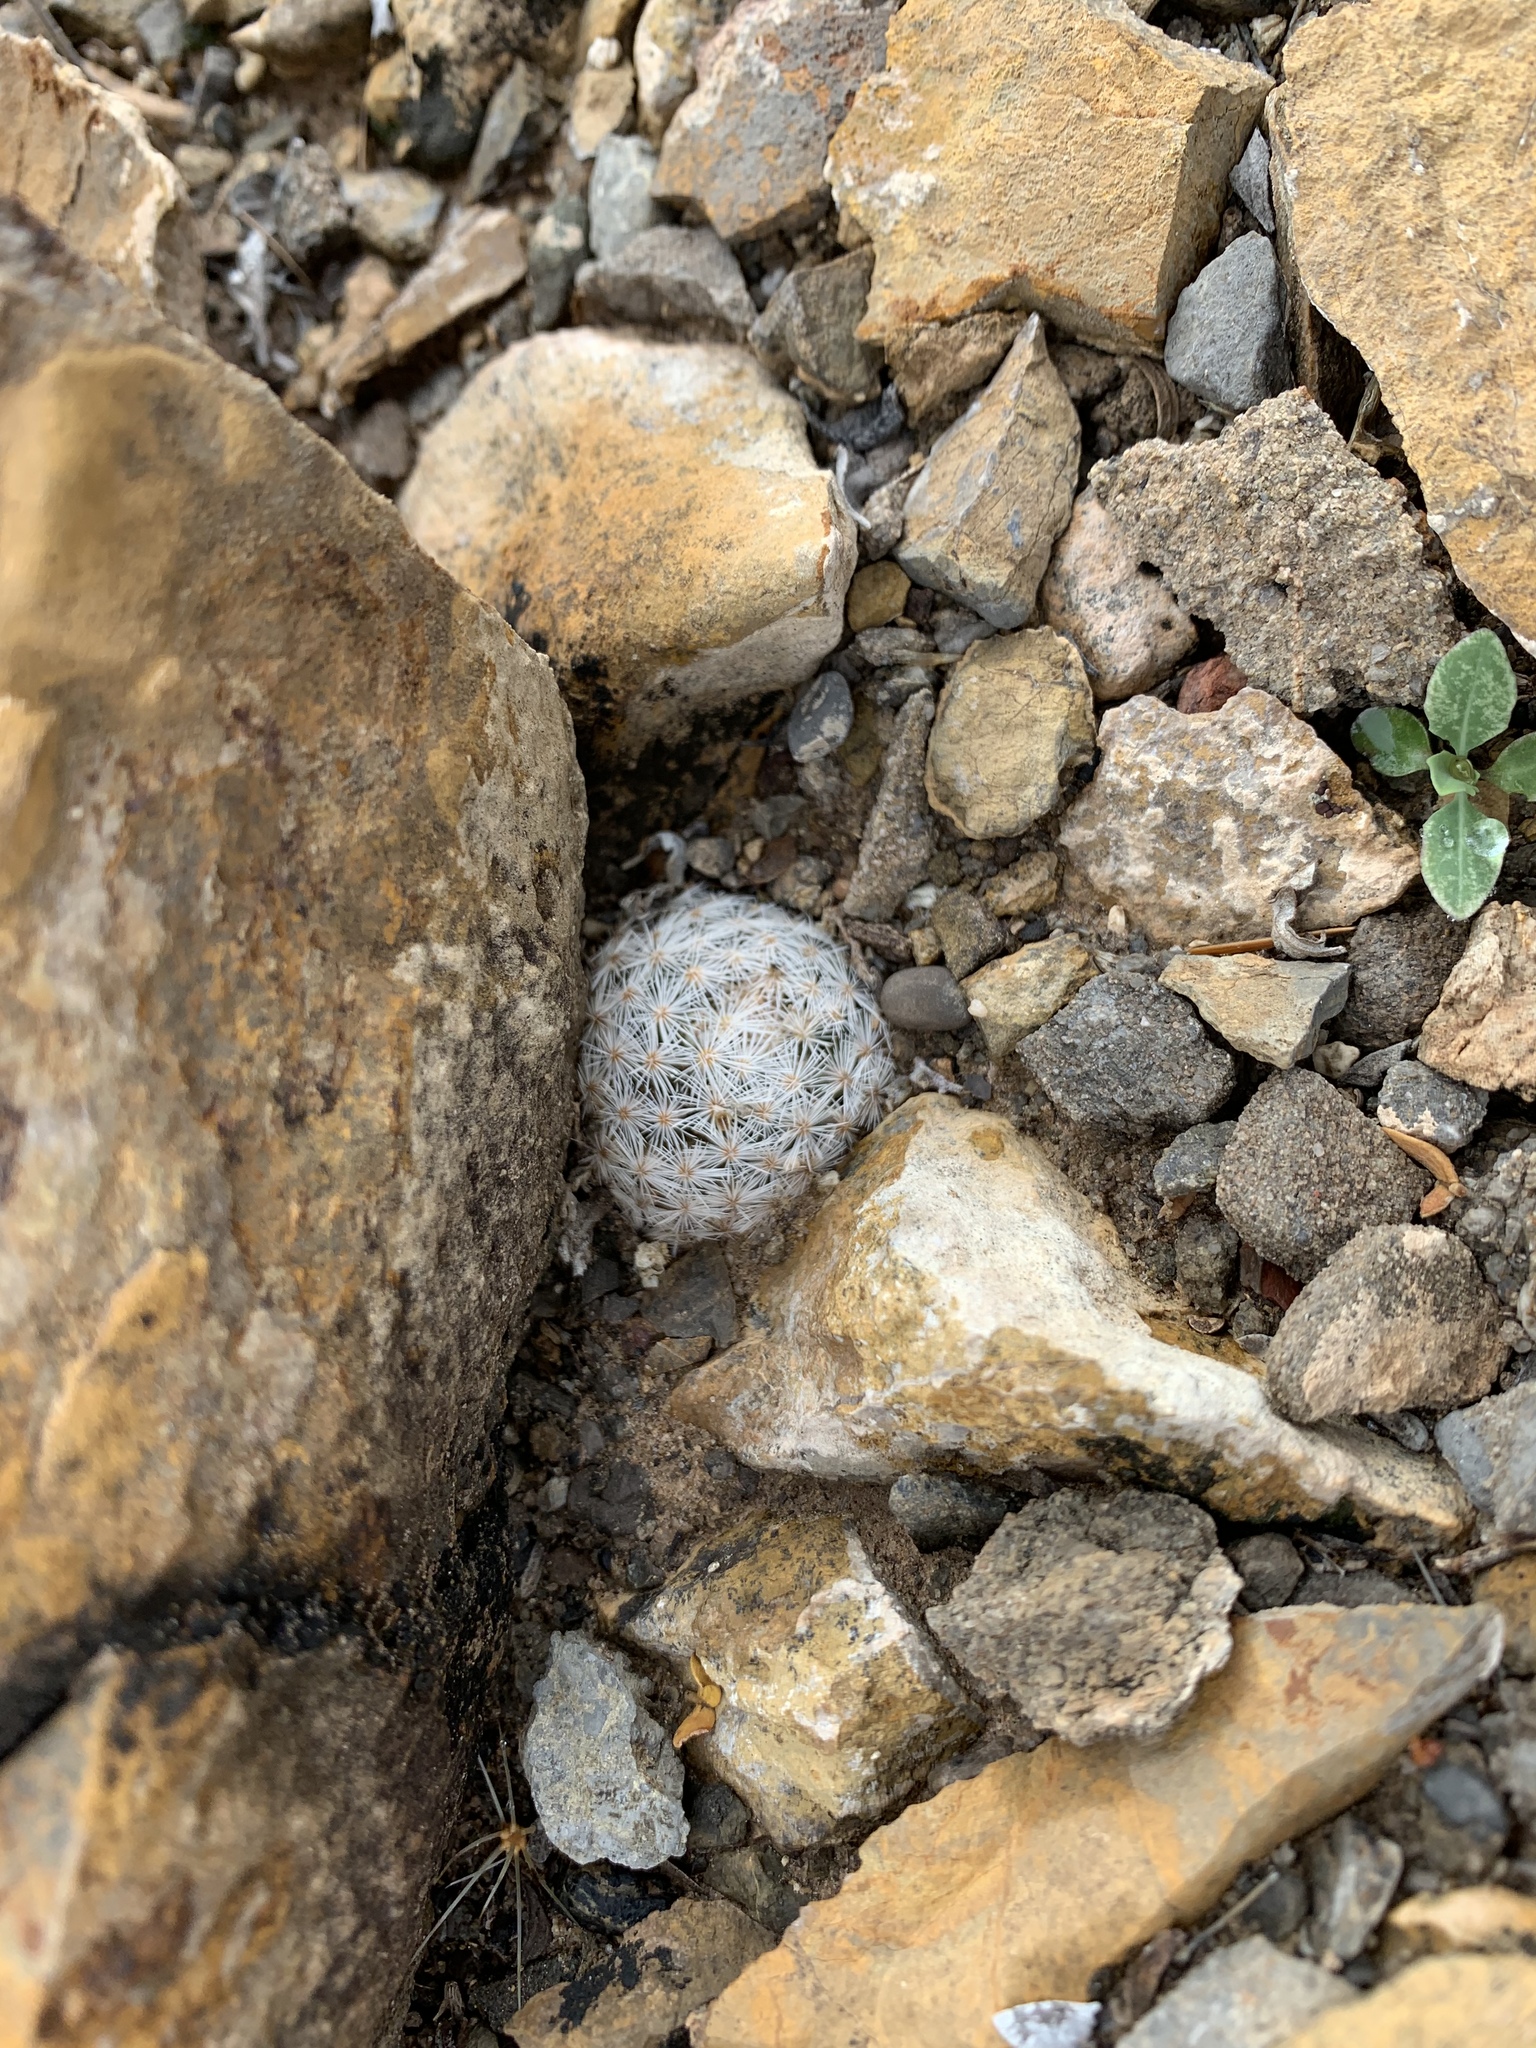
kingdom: Plantae
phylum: Tracheophyta
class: Magnoliopsida
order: Caryophyllales
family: Cactaceae
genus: Mammillaria
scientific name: Mammillaria lasiacantha
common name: Lace-spine nipple cactus
